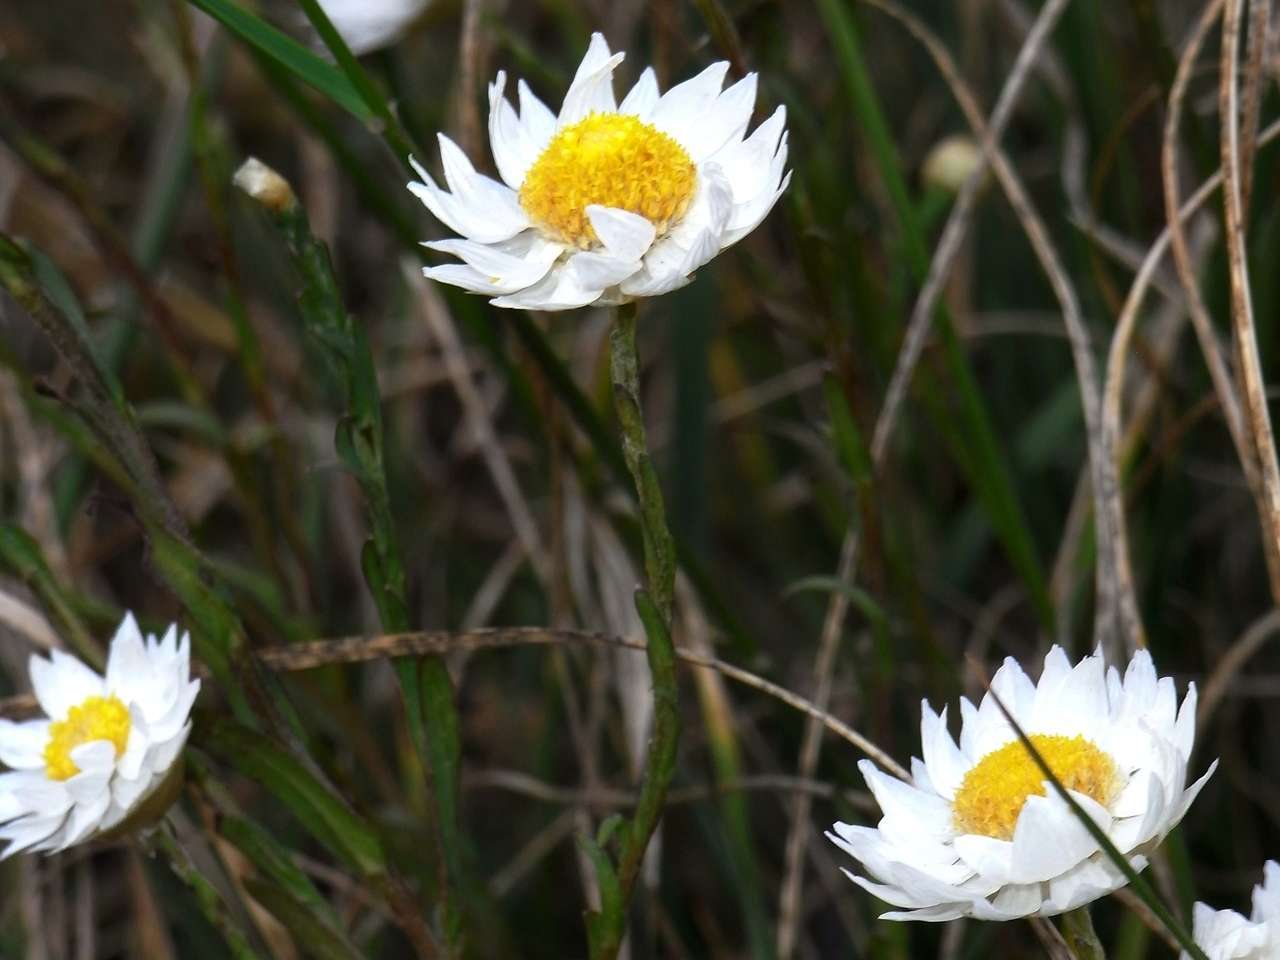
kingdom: Plantae
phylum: Tracheophyta
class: Magnoliopsida
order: Asterales
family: Asteraceae
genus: Rhodanthe
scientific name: Rhodanthe stuartiana
